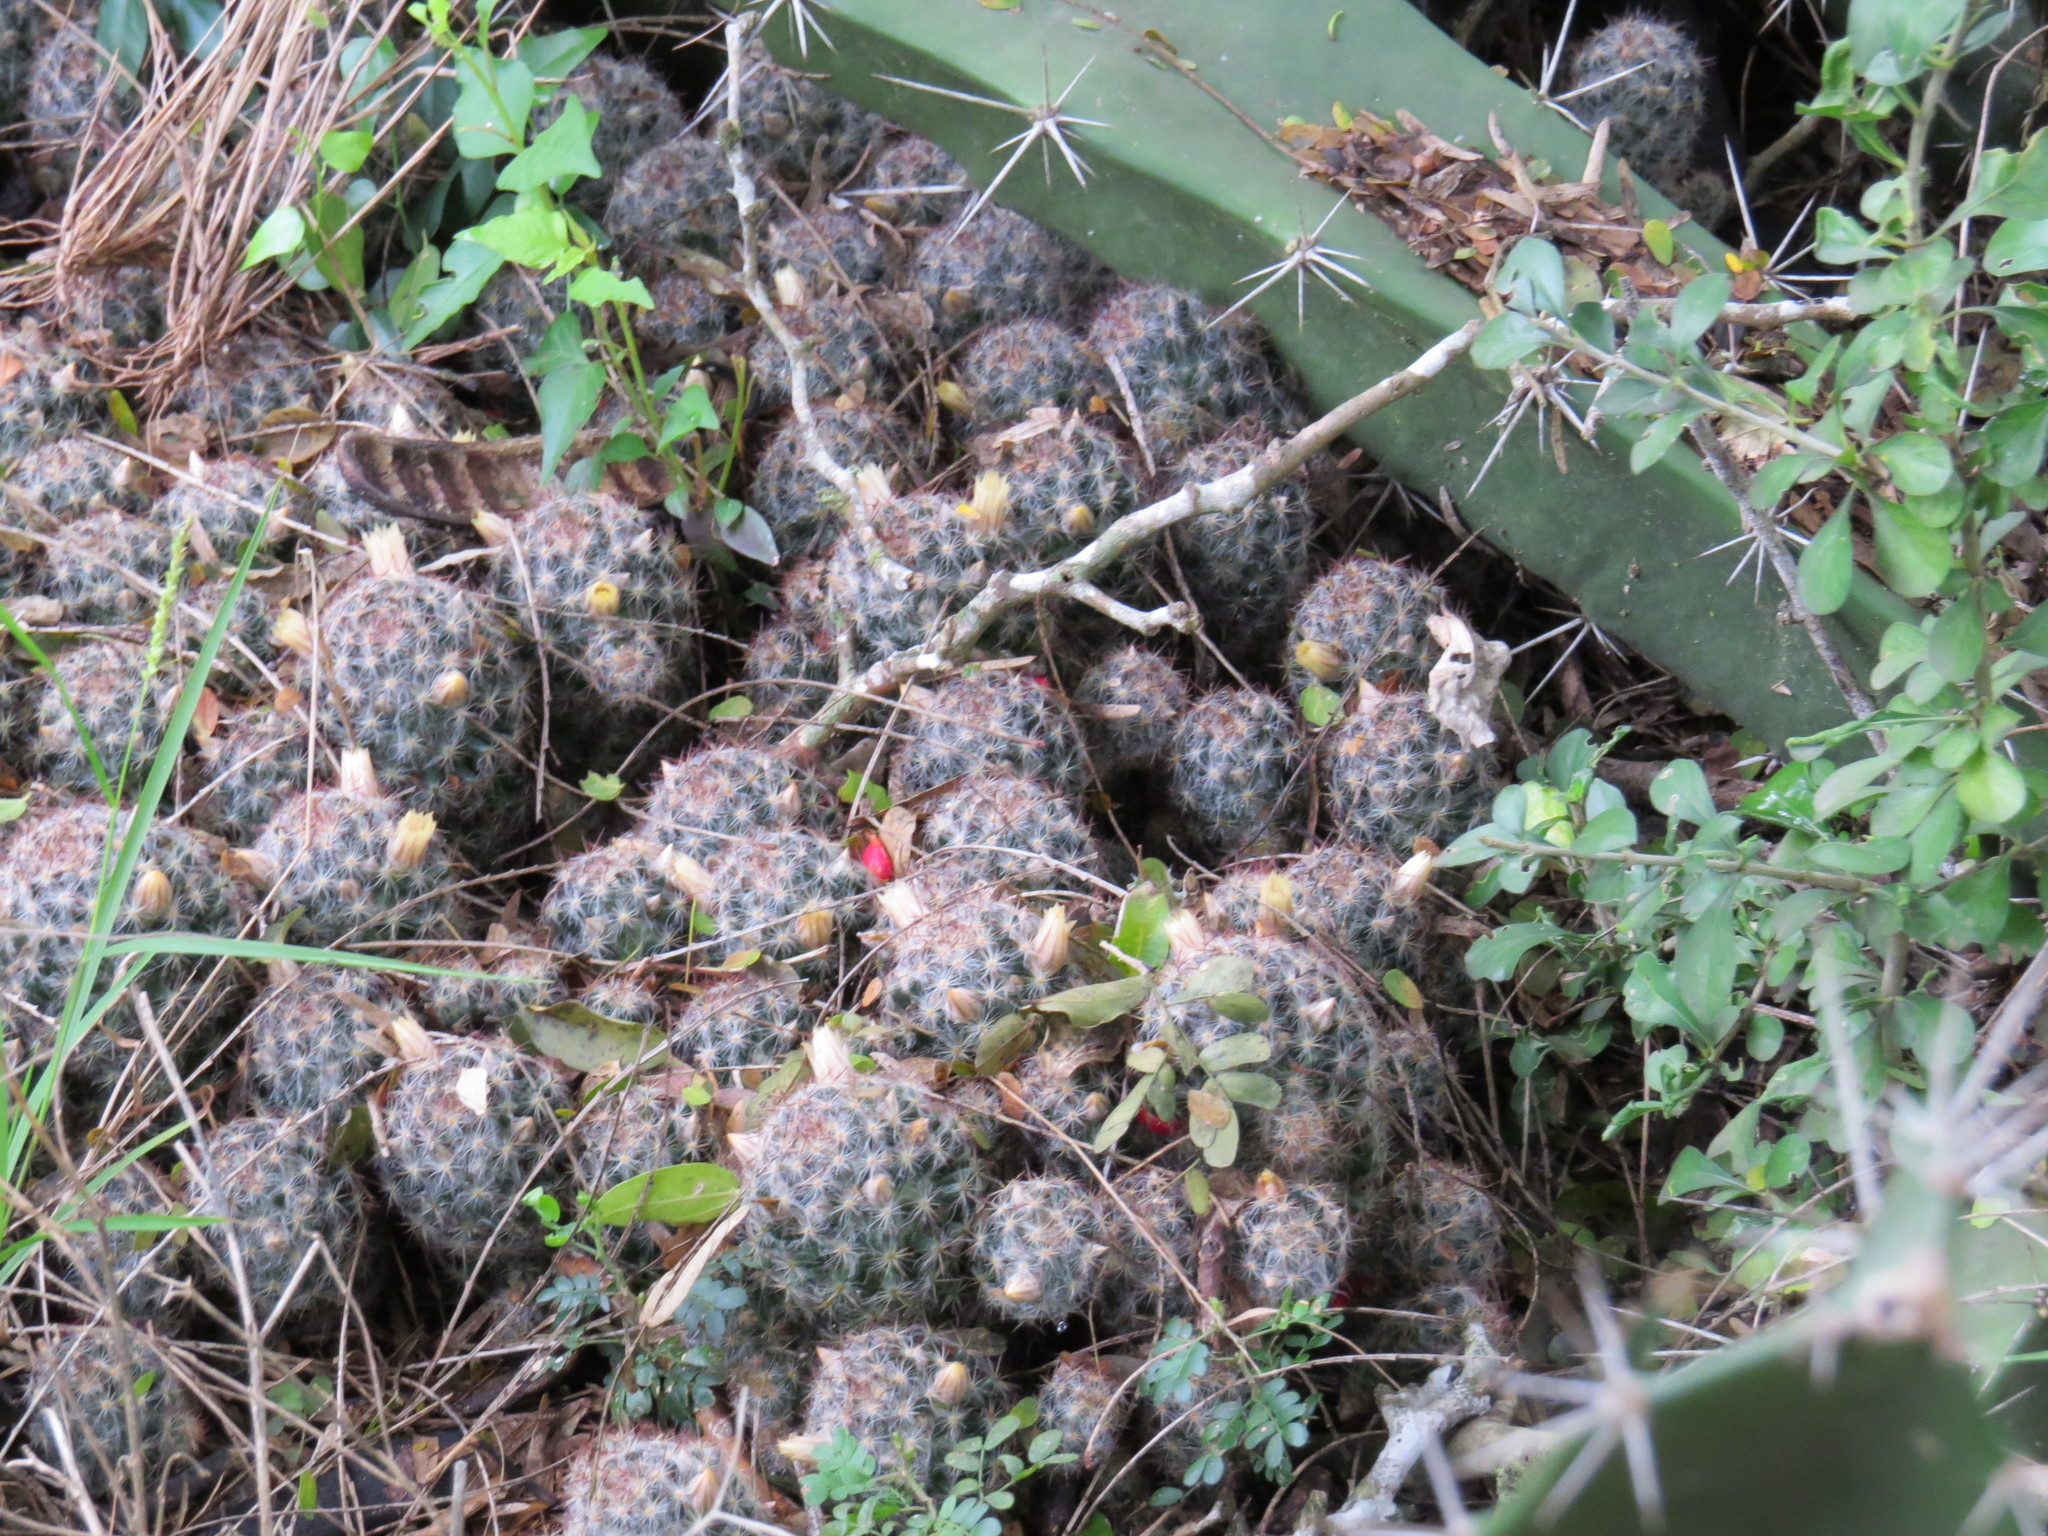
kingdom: Plantae
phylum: Tracheophyta
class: Magnoliopsida
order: Caryophyllales
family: Cactaceae
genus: Mammillaria
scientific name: Mammillaria prolifera
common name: Texas nipple cactus
